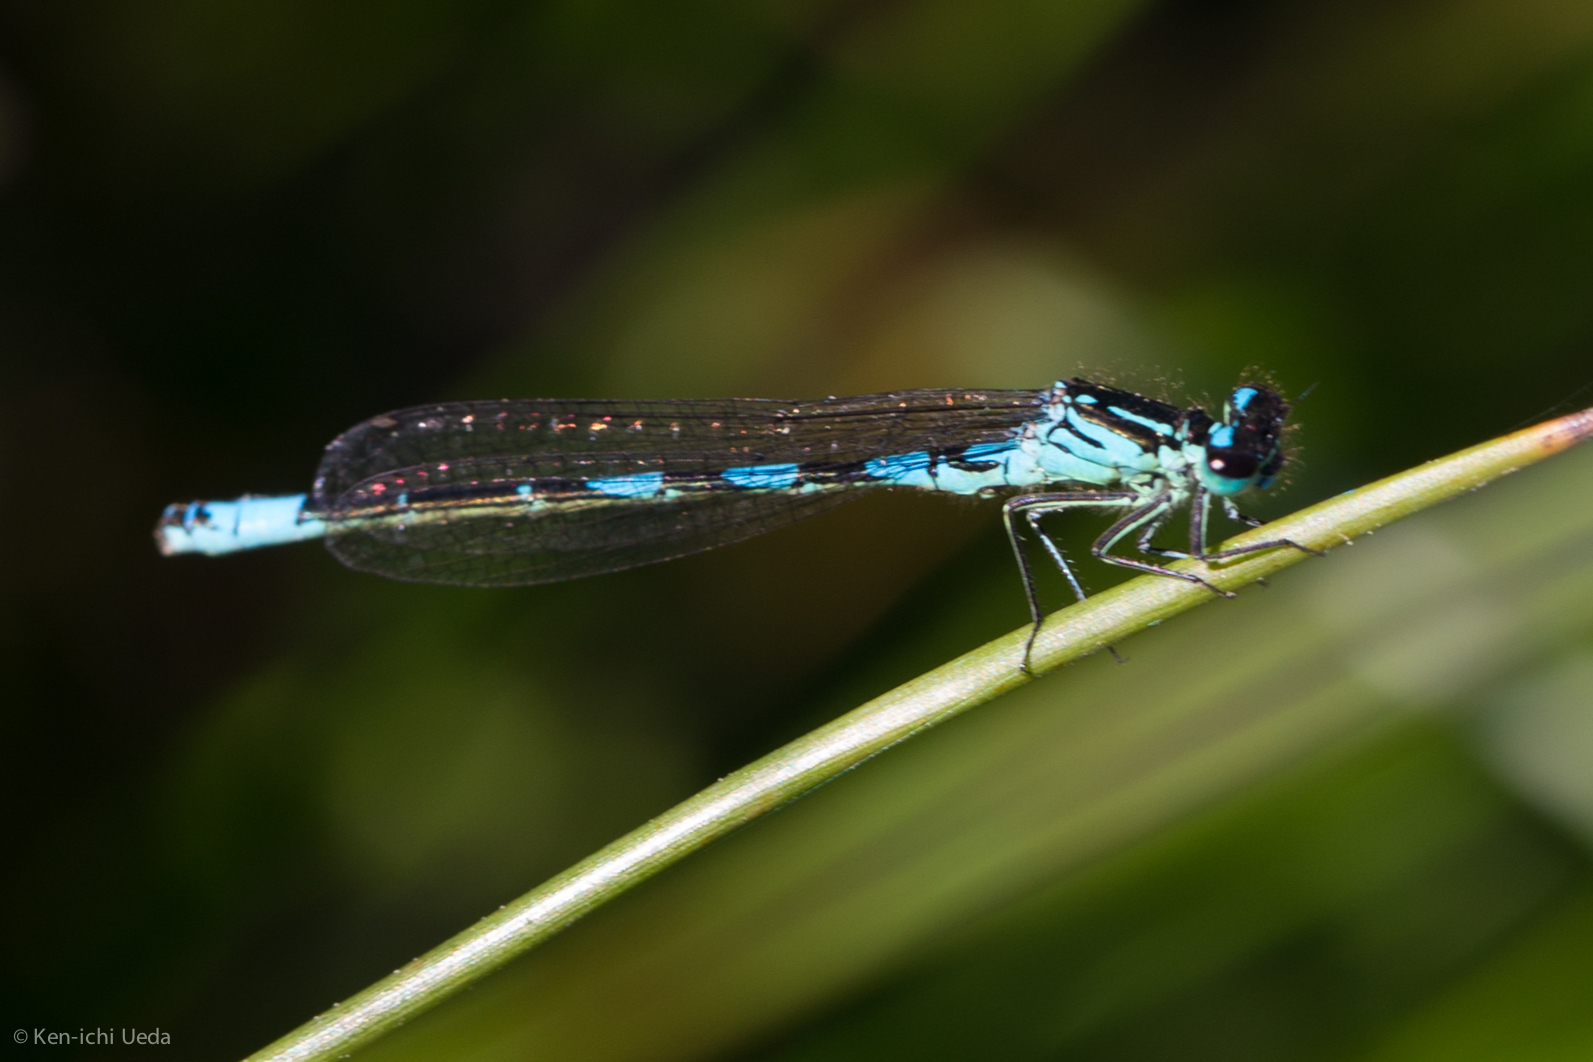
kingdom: Animalia
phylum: Arthropoda
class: Insecta
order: Odonata
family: Coenagrionidae
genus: Coenagrion
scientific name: Coenagrion resolutum
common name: Taiga bluet
